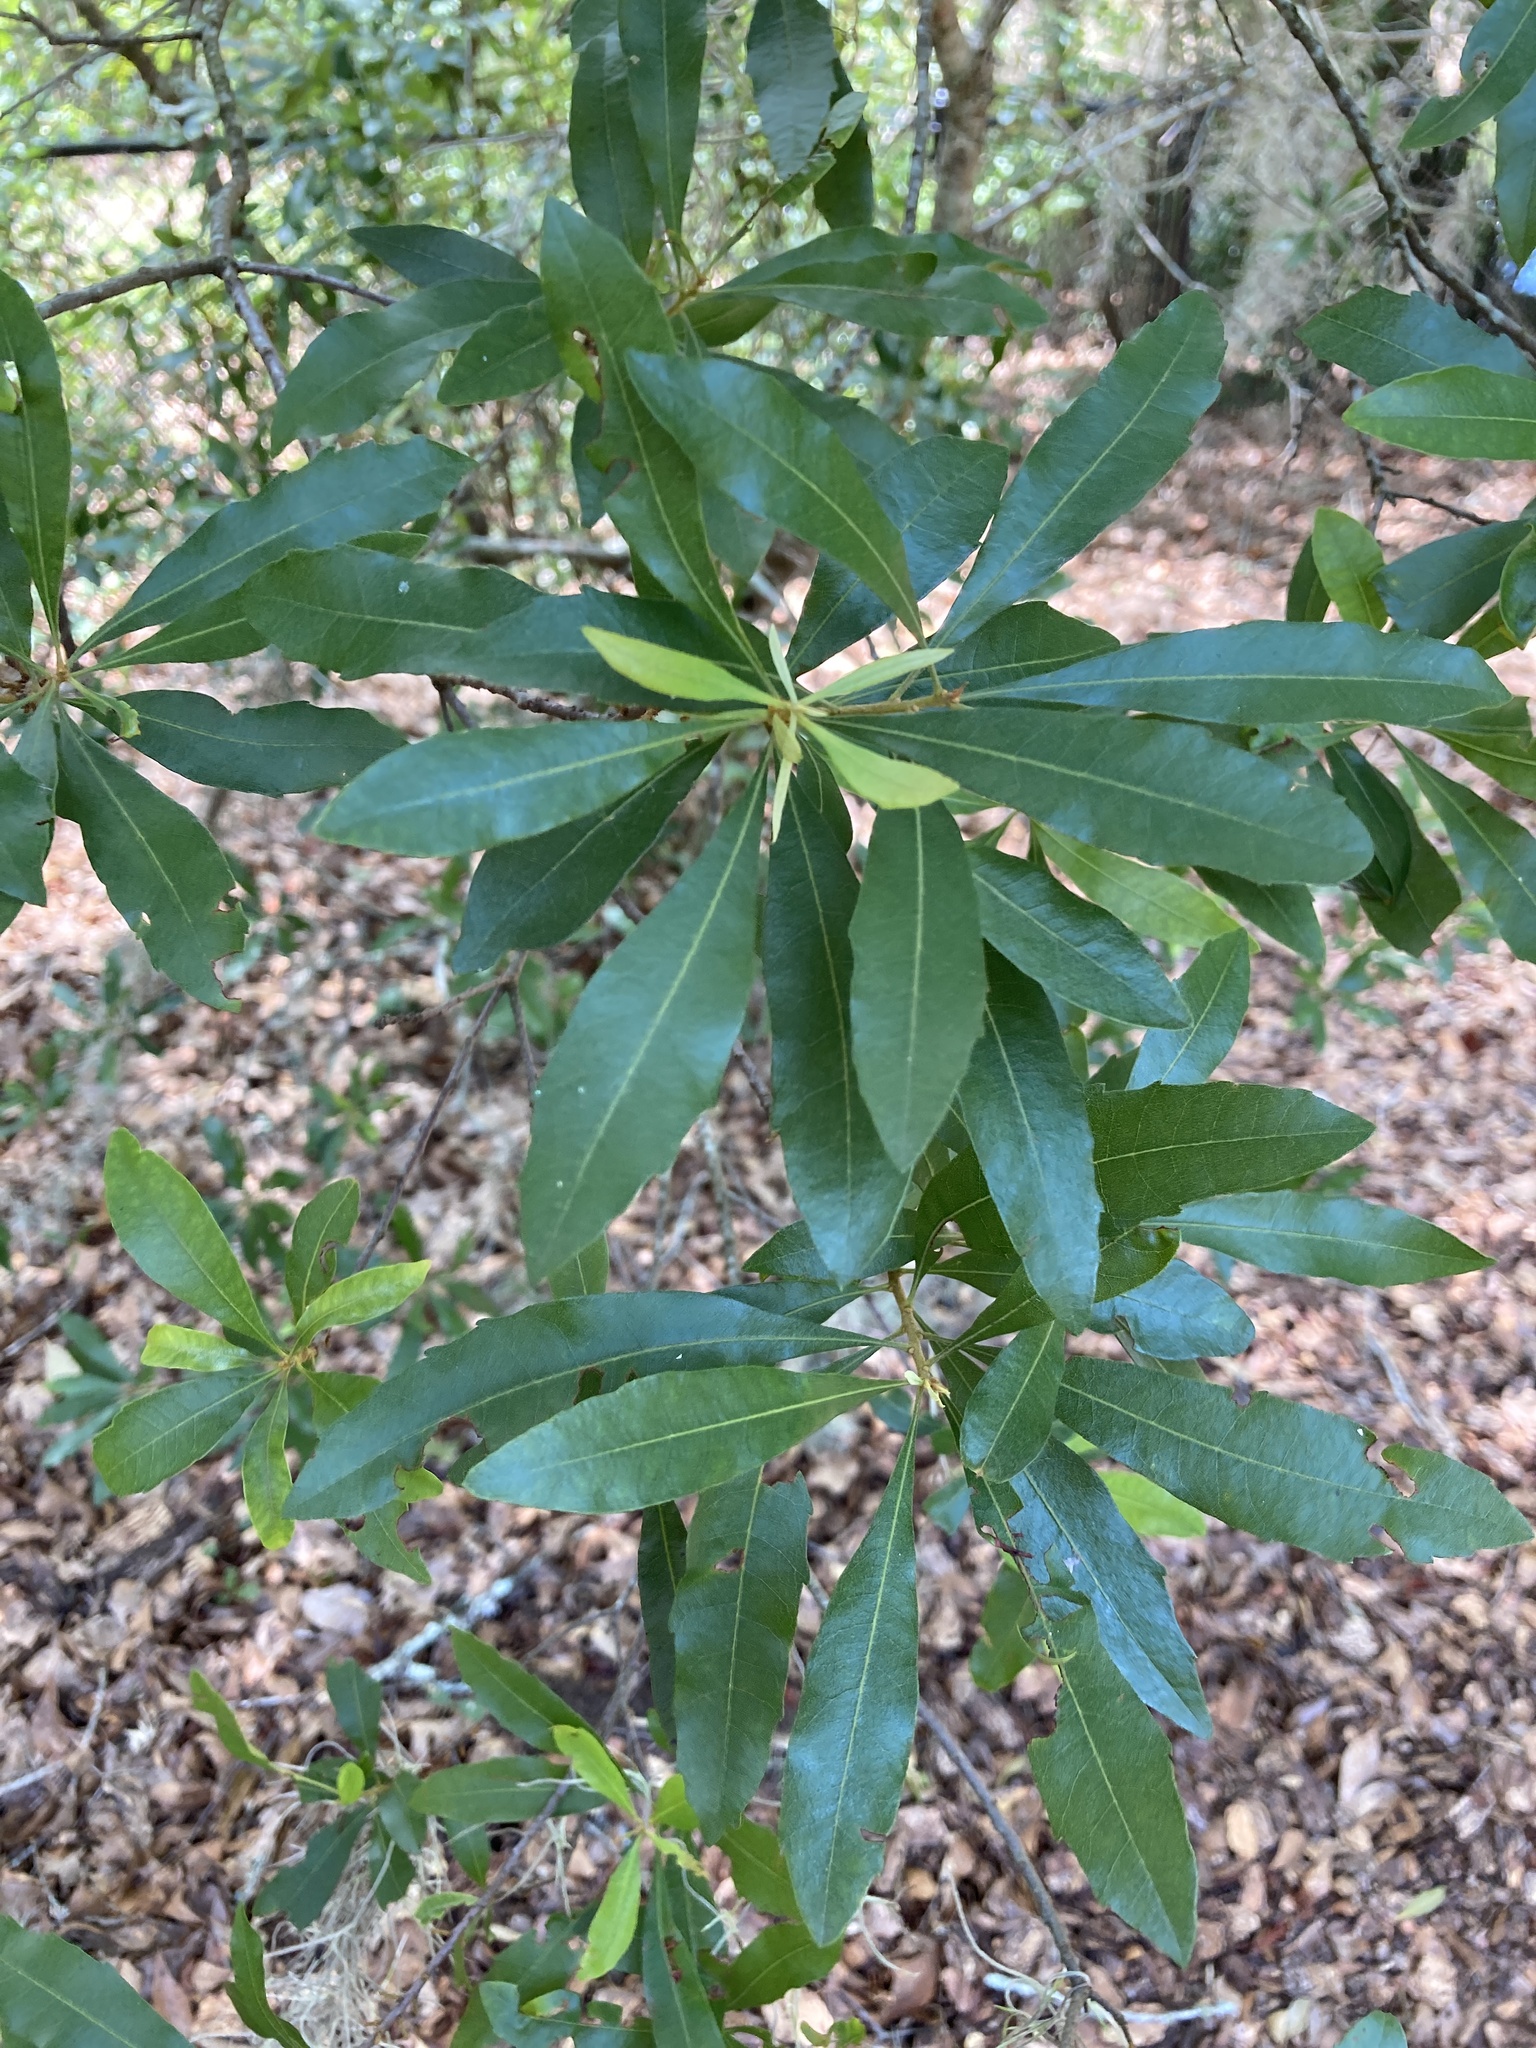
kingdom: Plantae
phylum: Tracheophyta
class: Magnoliopsida
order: Fagales
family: Myricaceae
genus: Morella
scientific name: Morella cerifera
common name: Wax myrtle
